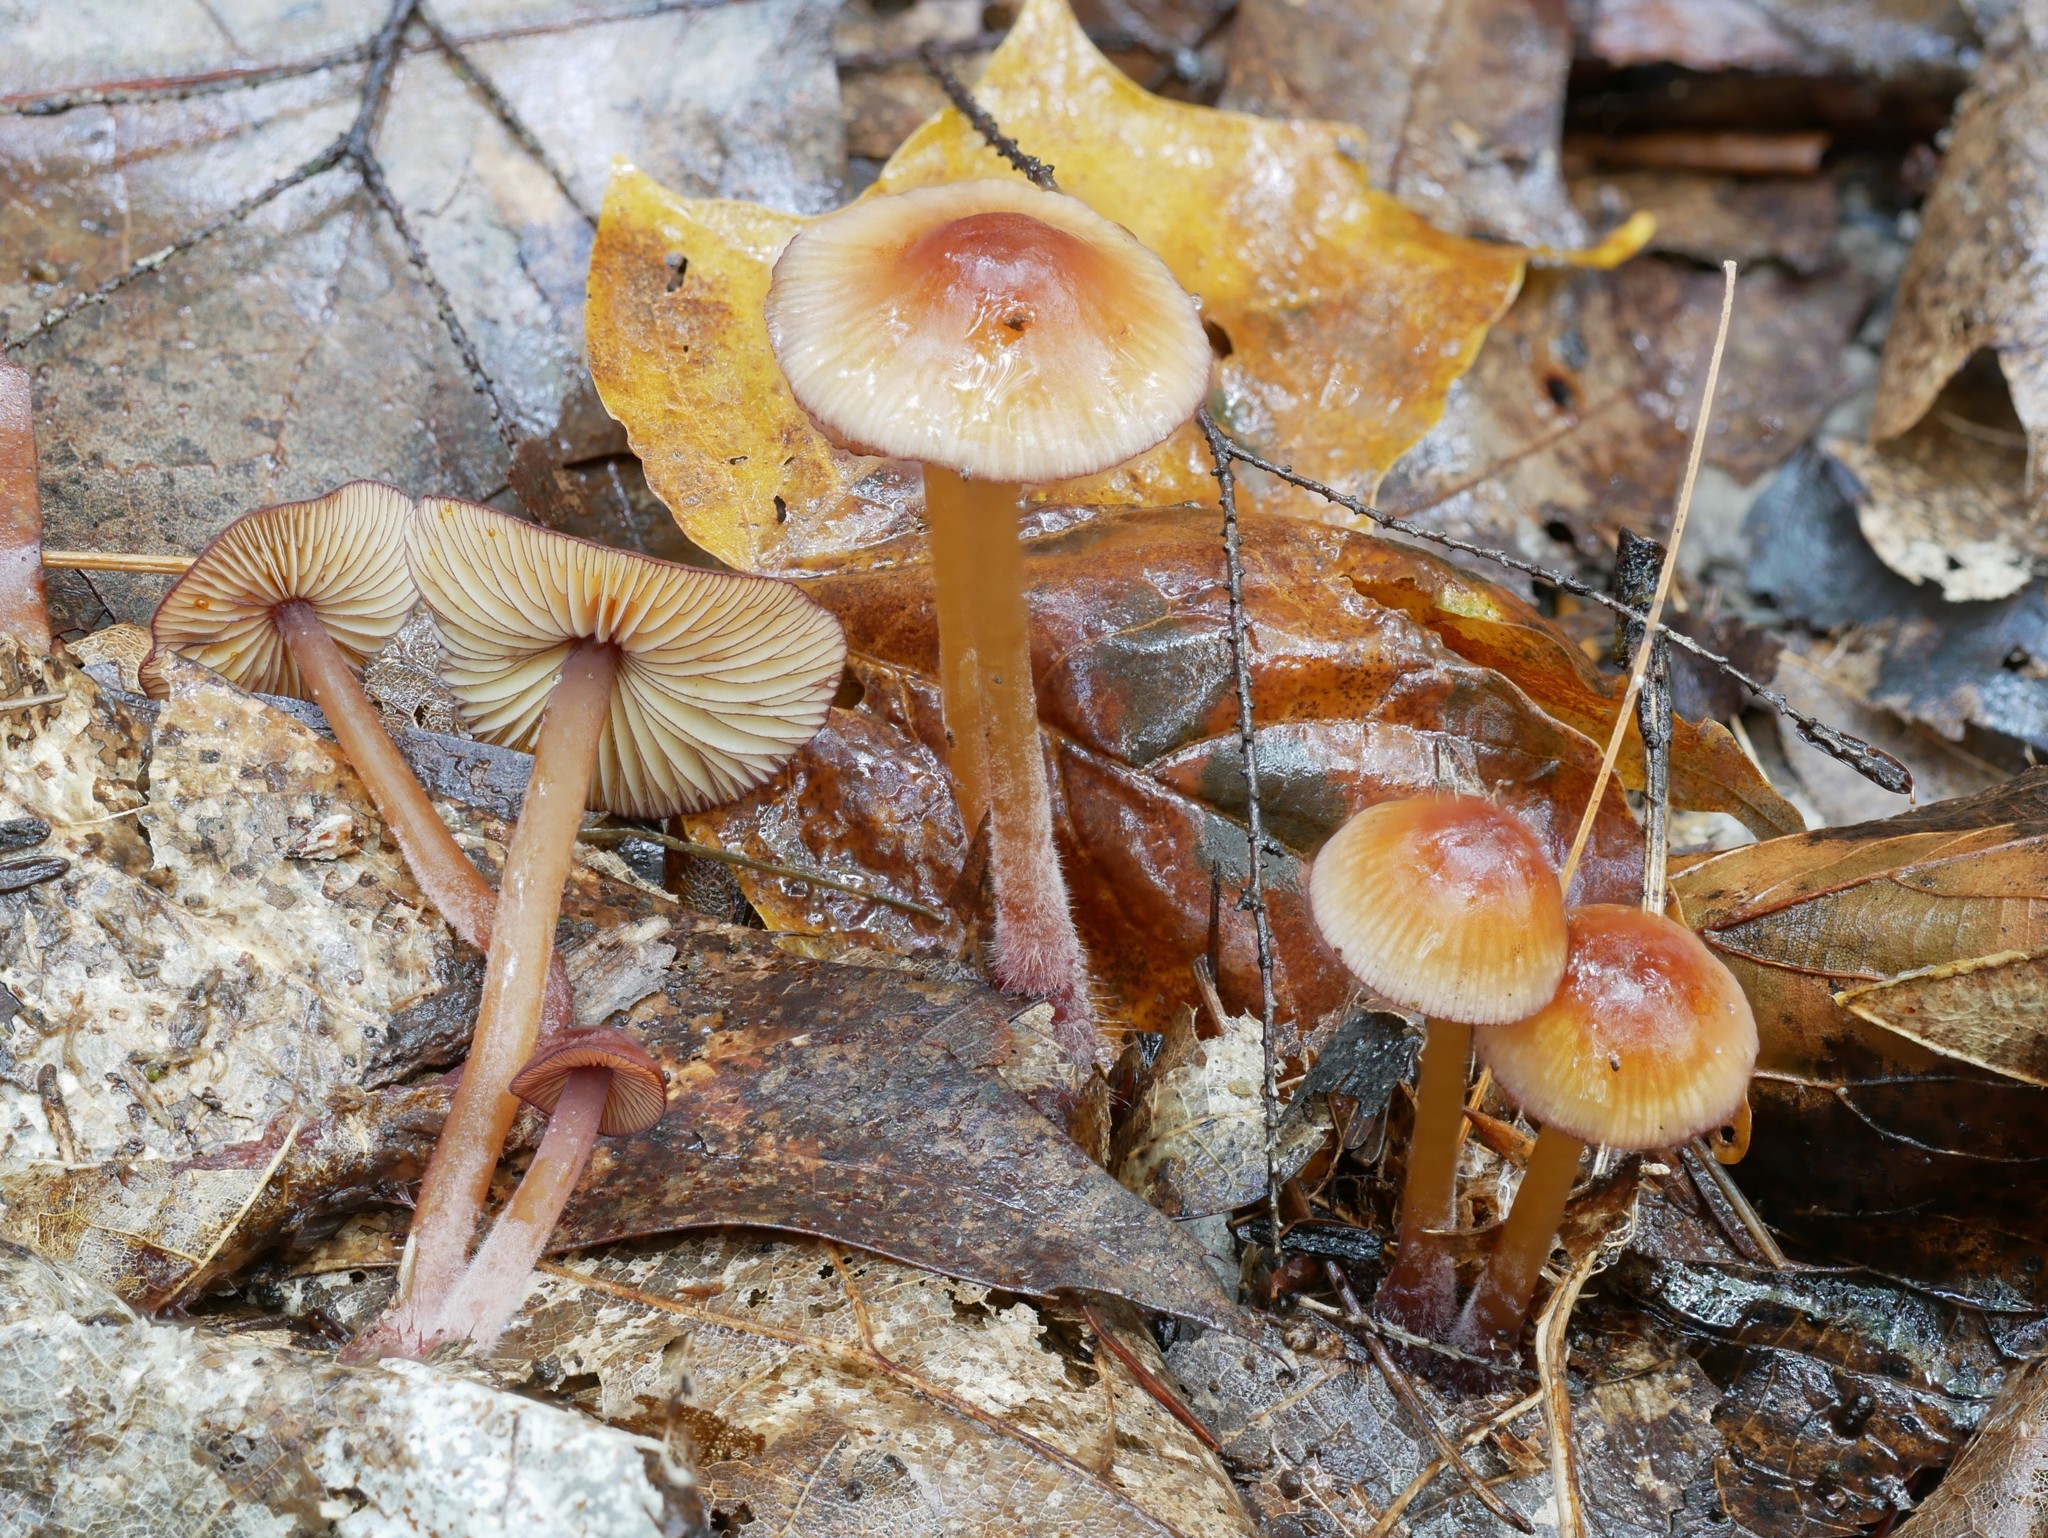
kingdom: Fungi
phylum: Basidiomycota
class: Agaricomycetes
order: Agaricales
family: Mycenaceae
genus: Mycena
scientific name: Mycena atkinsoniana
